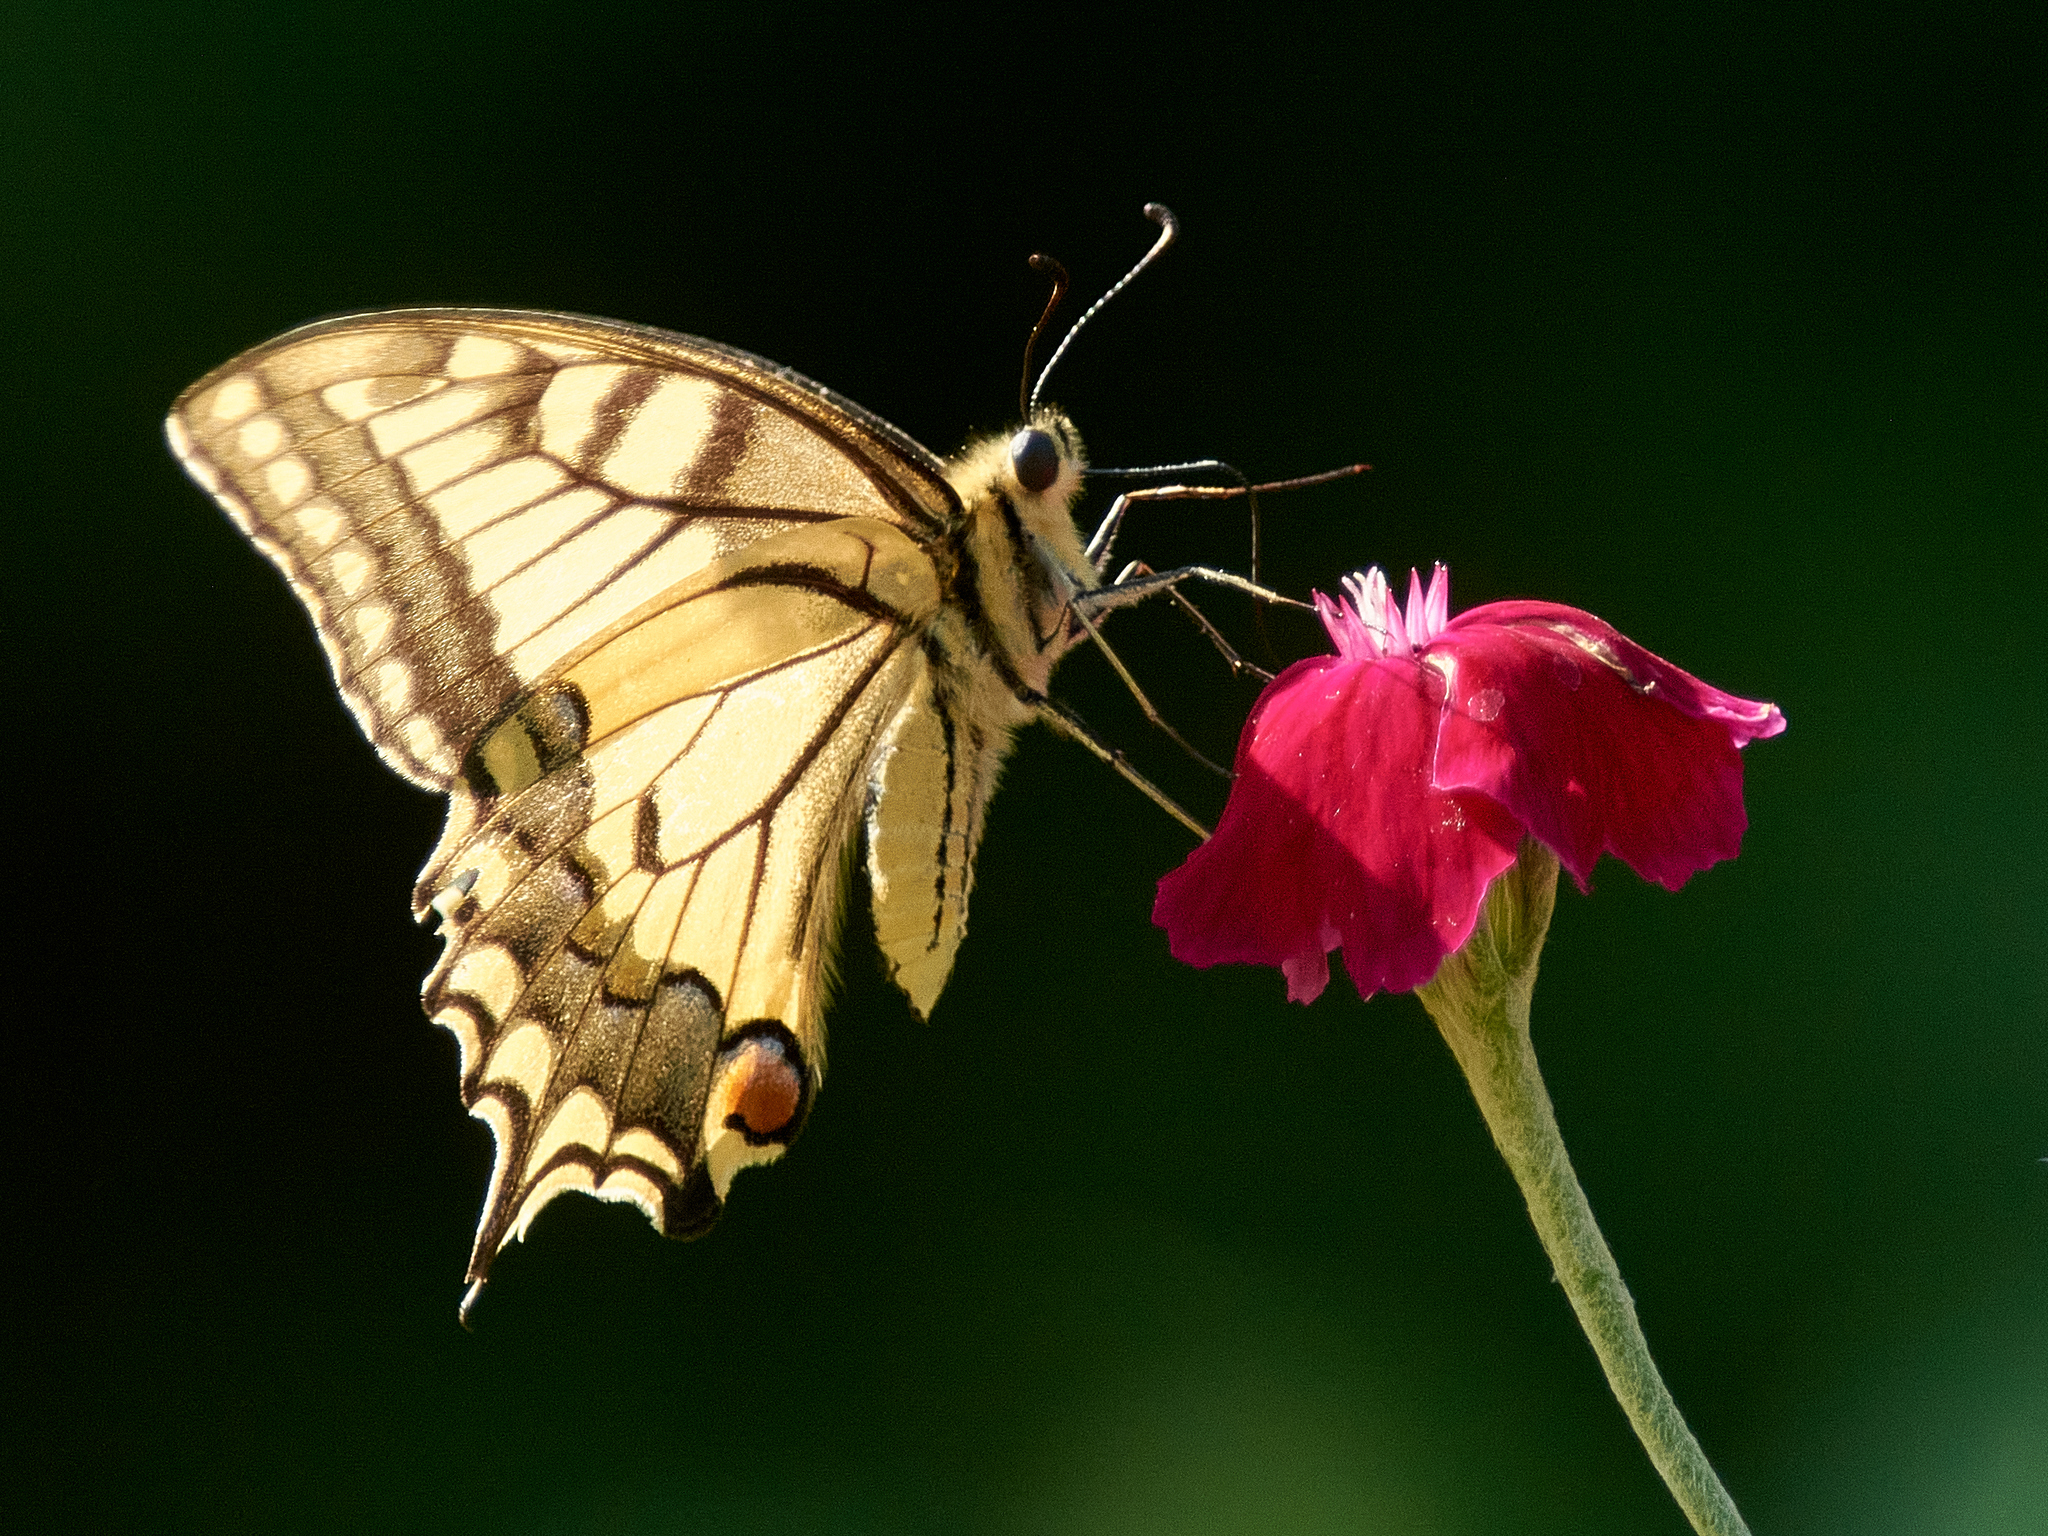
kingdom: Animalia
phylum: Arthropoda
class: Insecta
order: Lepidoptera
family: Papilionidae
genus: Papilio
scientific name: Papilio machaon
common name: Swallowtail
